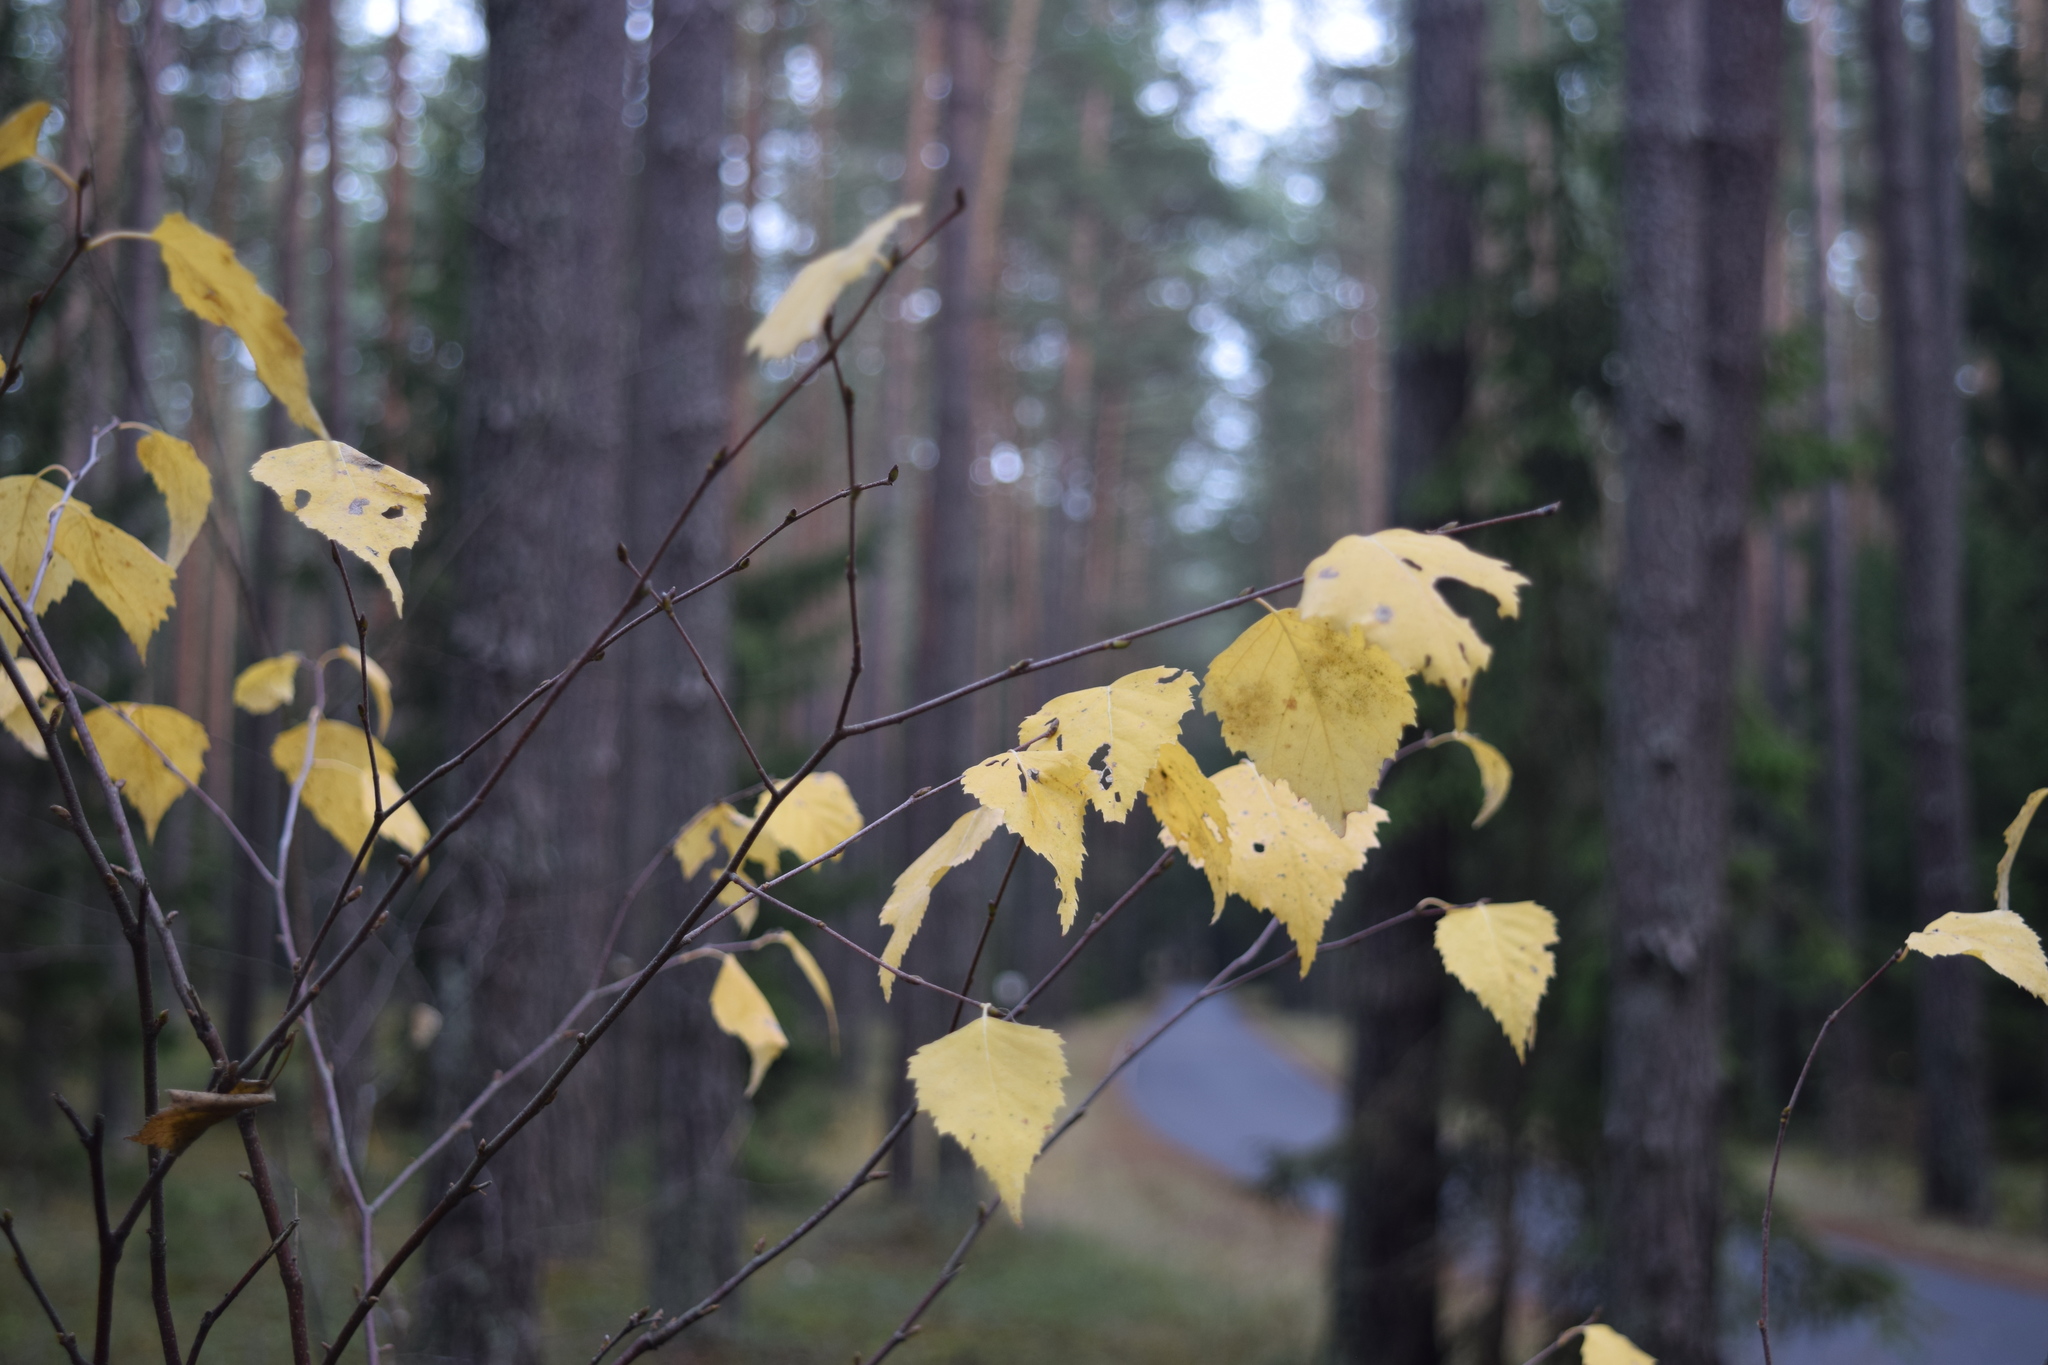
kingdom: Plantae
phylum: Tracheophyta
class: Magnoliopsida
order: Fagales
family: Betulaceae
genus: Betula
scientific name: Betula pendula
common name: Silver birch
